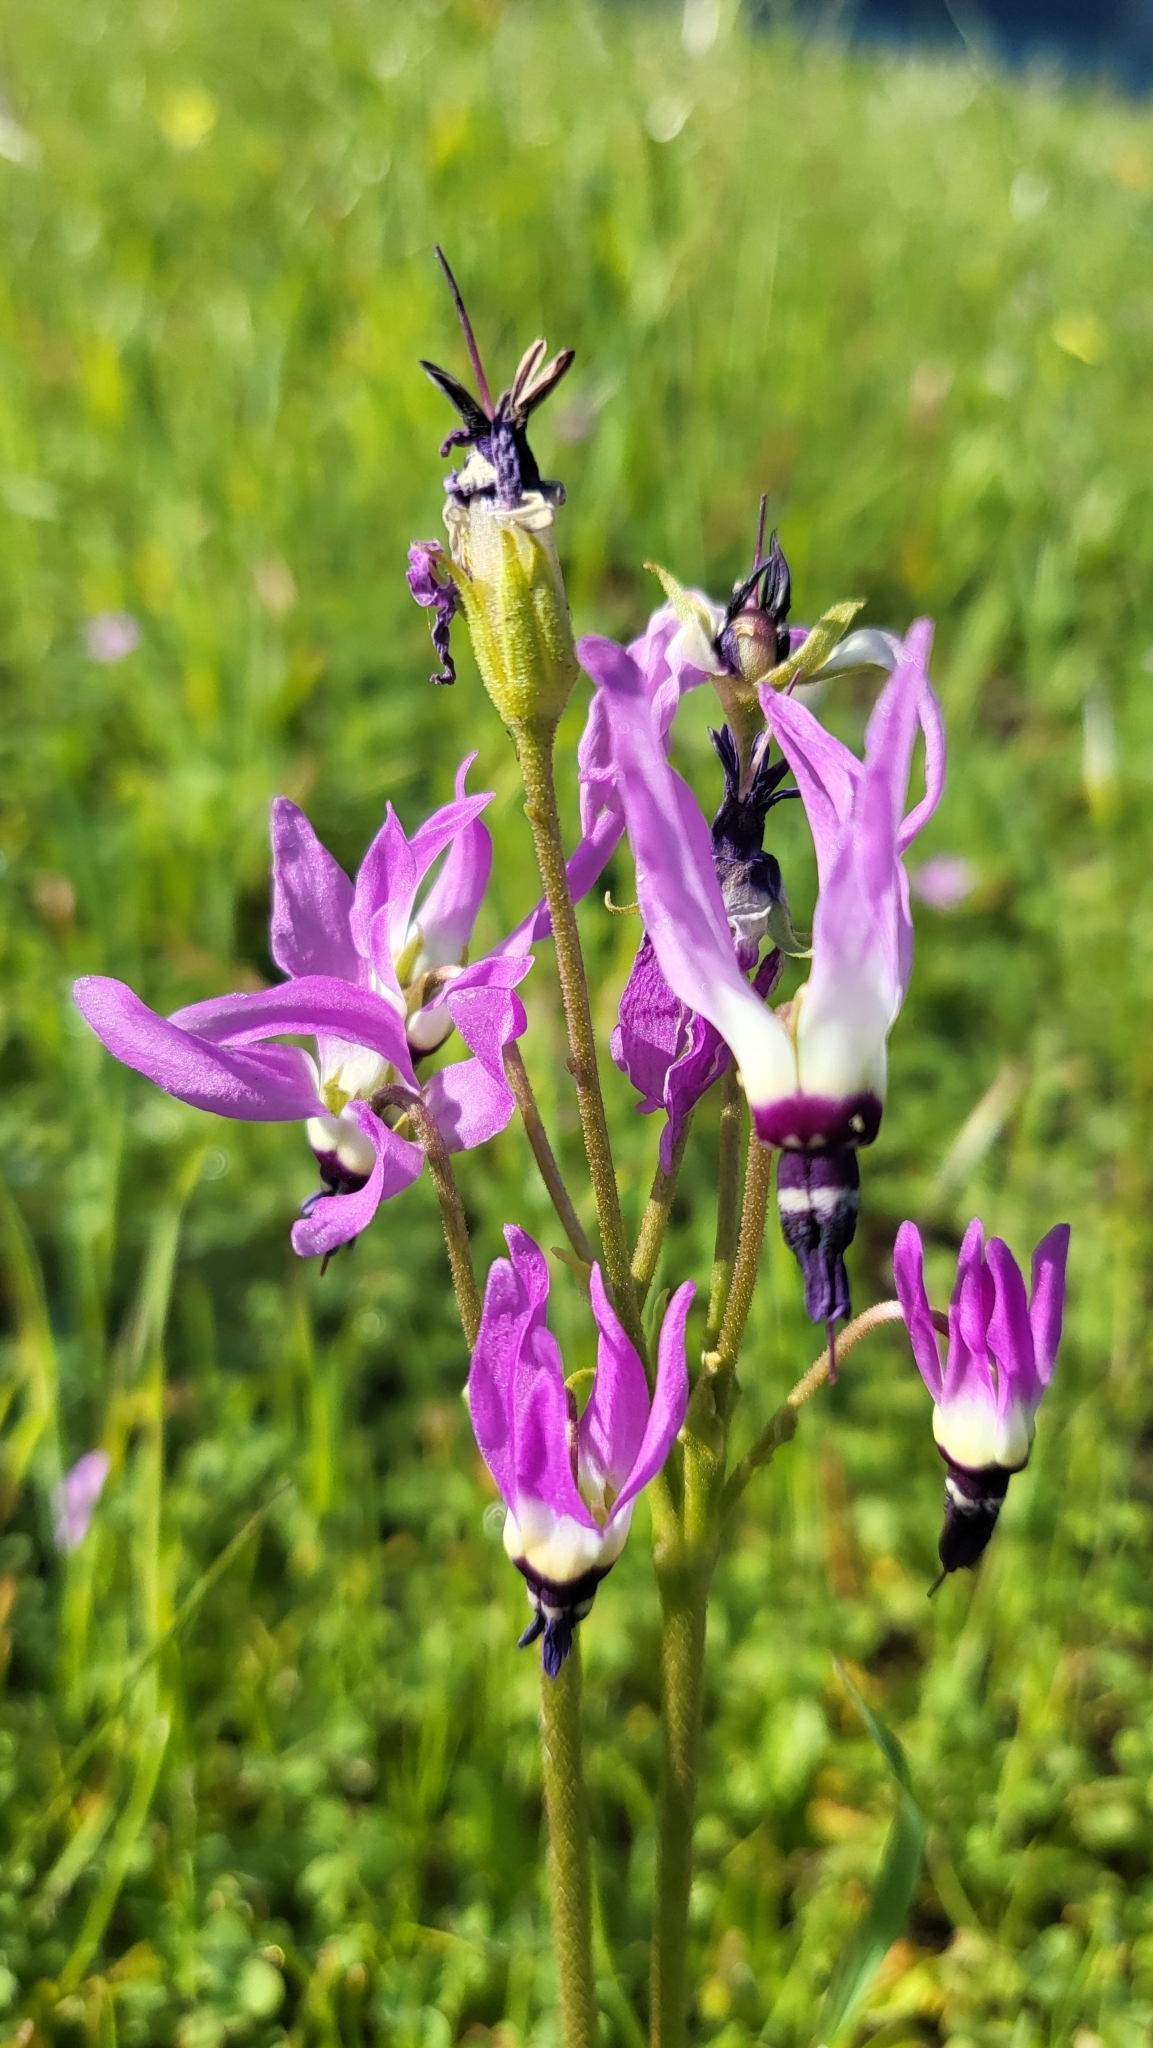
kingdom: Plantae
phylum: Tracheophyta
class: Magnoliopsida
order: Ericales
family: Primulaceae
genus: Dodecatheon
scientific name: Dodecatheon clevelandii
